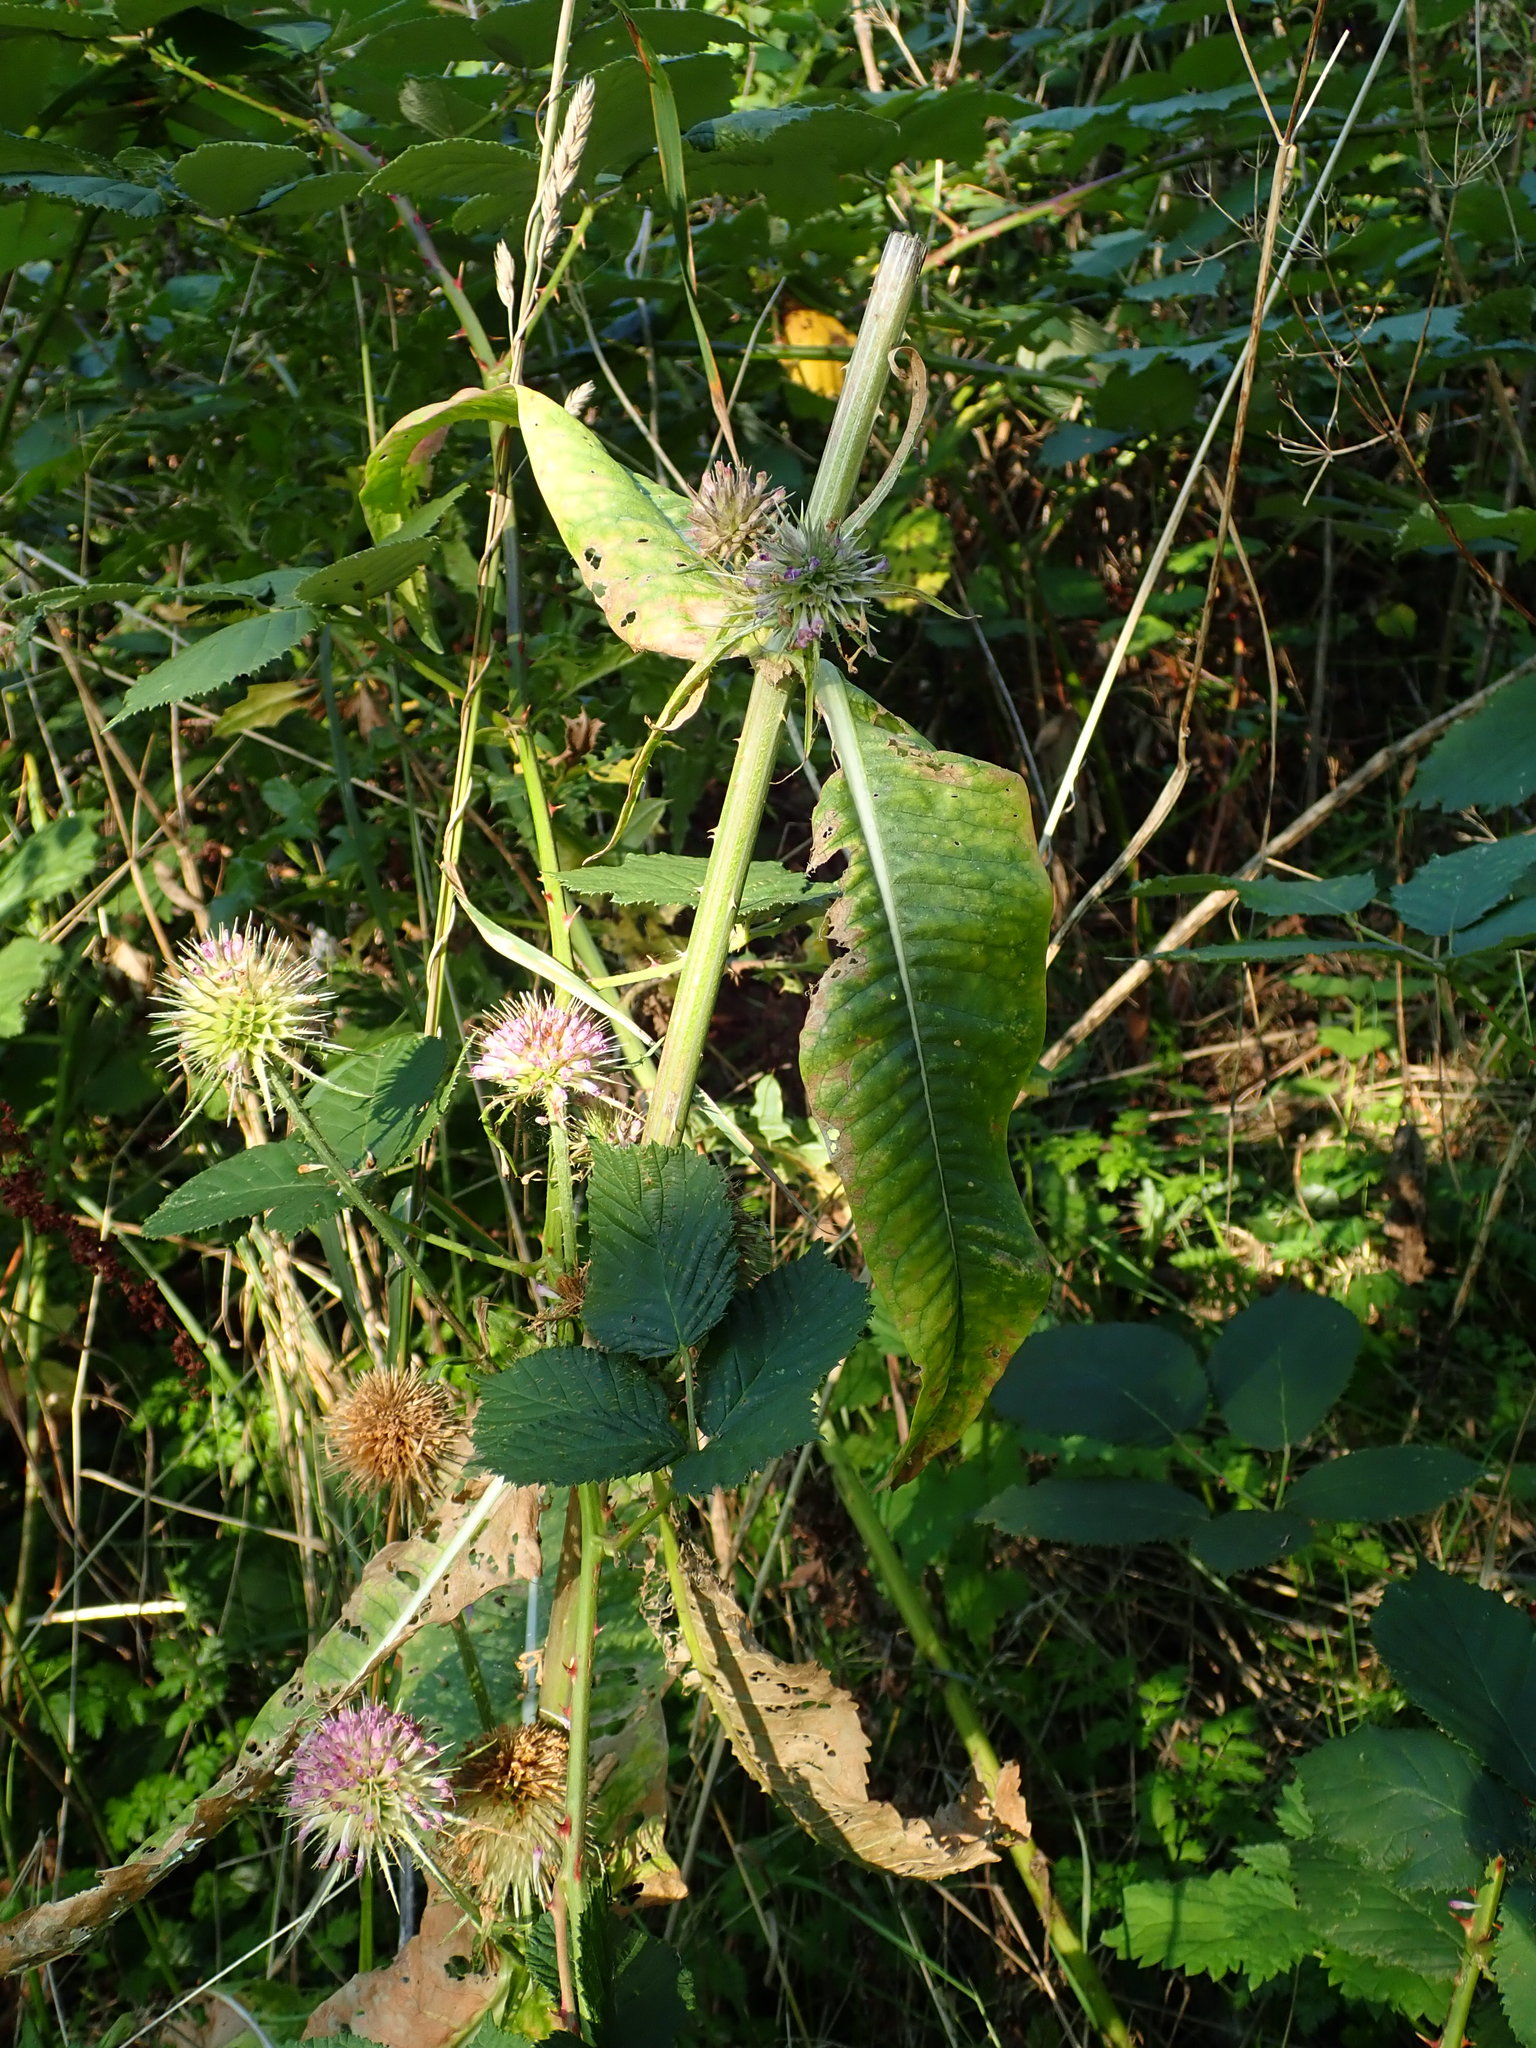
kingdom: Plantae
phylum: Tracheophyta
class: Magnoliopsida
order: Dipsacales
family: Caprifoliaceae
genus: Dipsacus
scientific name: Dipsacus fullonum
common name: Teasel
